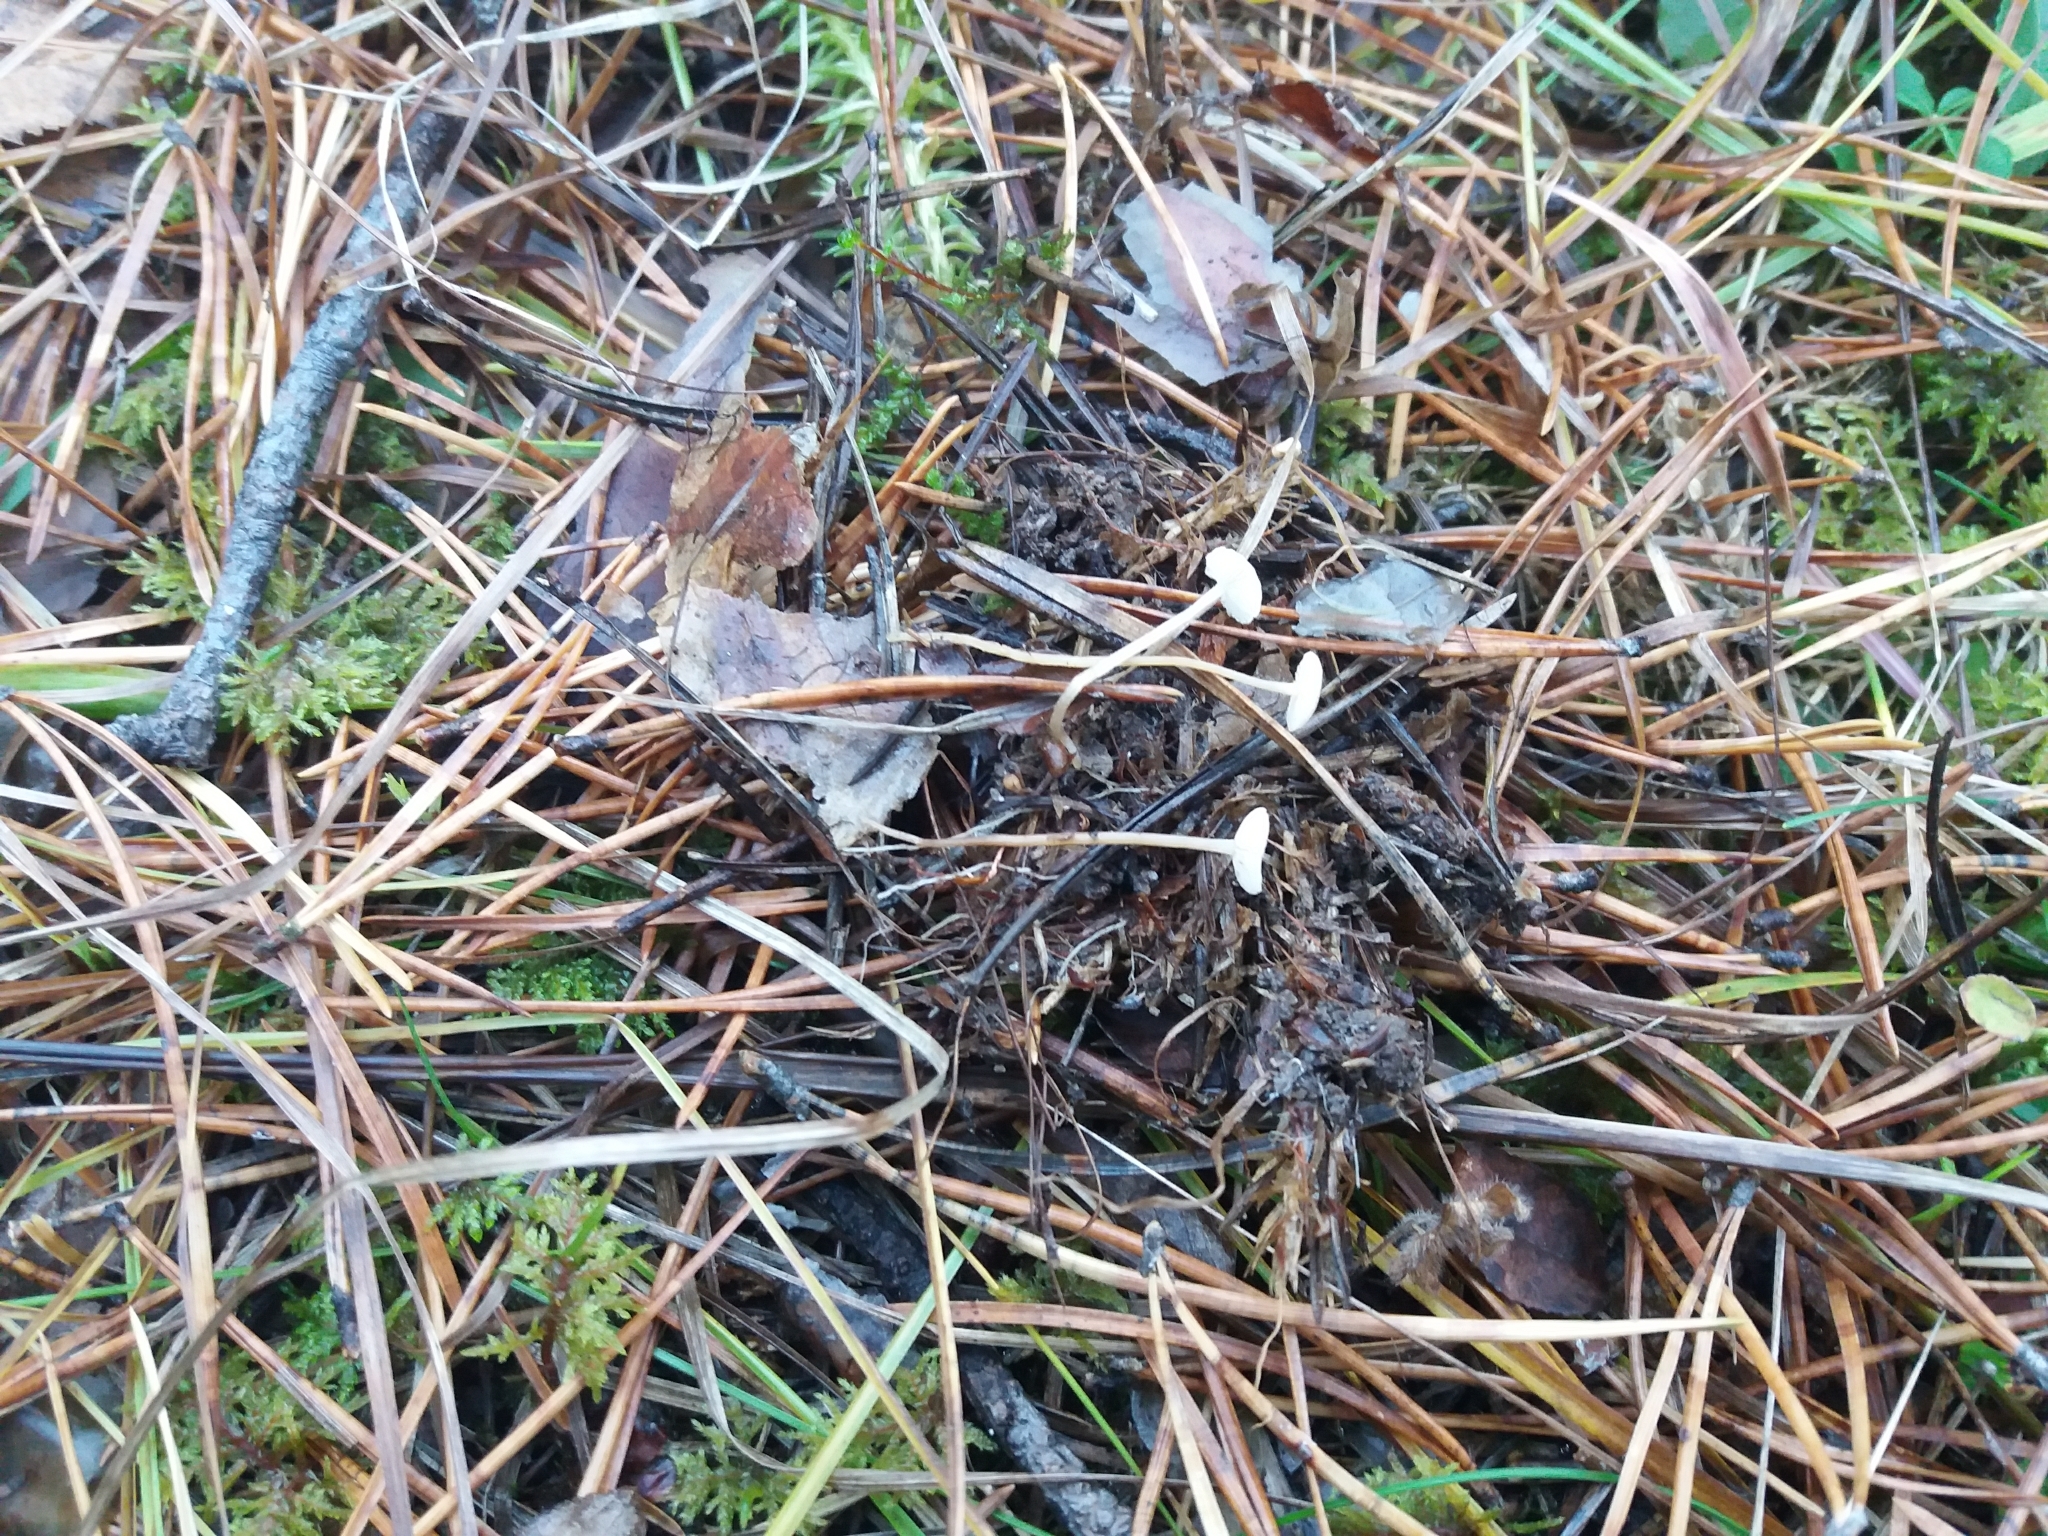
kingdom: Fungi
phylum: Basidiomycota
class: Agaricomycetes
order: Agaricales
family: Tricholomataceae
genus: Collybia
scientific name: Collybia cirrhata
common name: Piggyback shanklet
